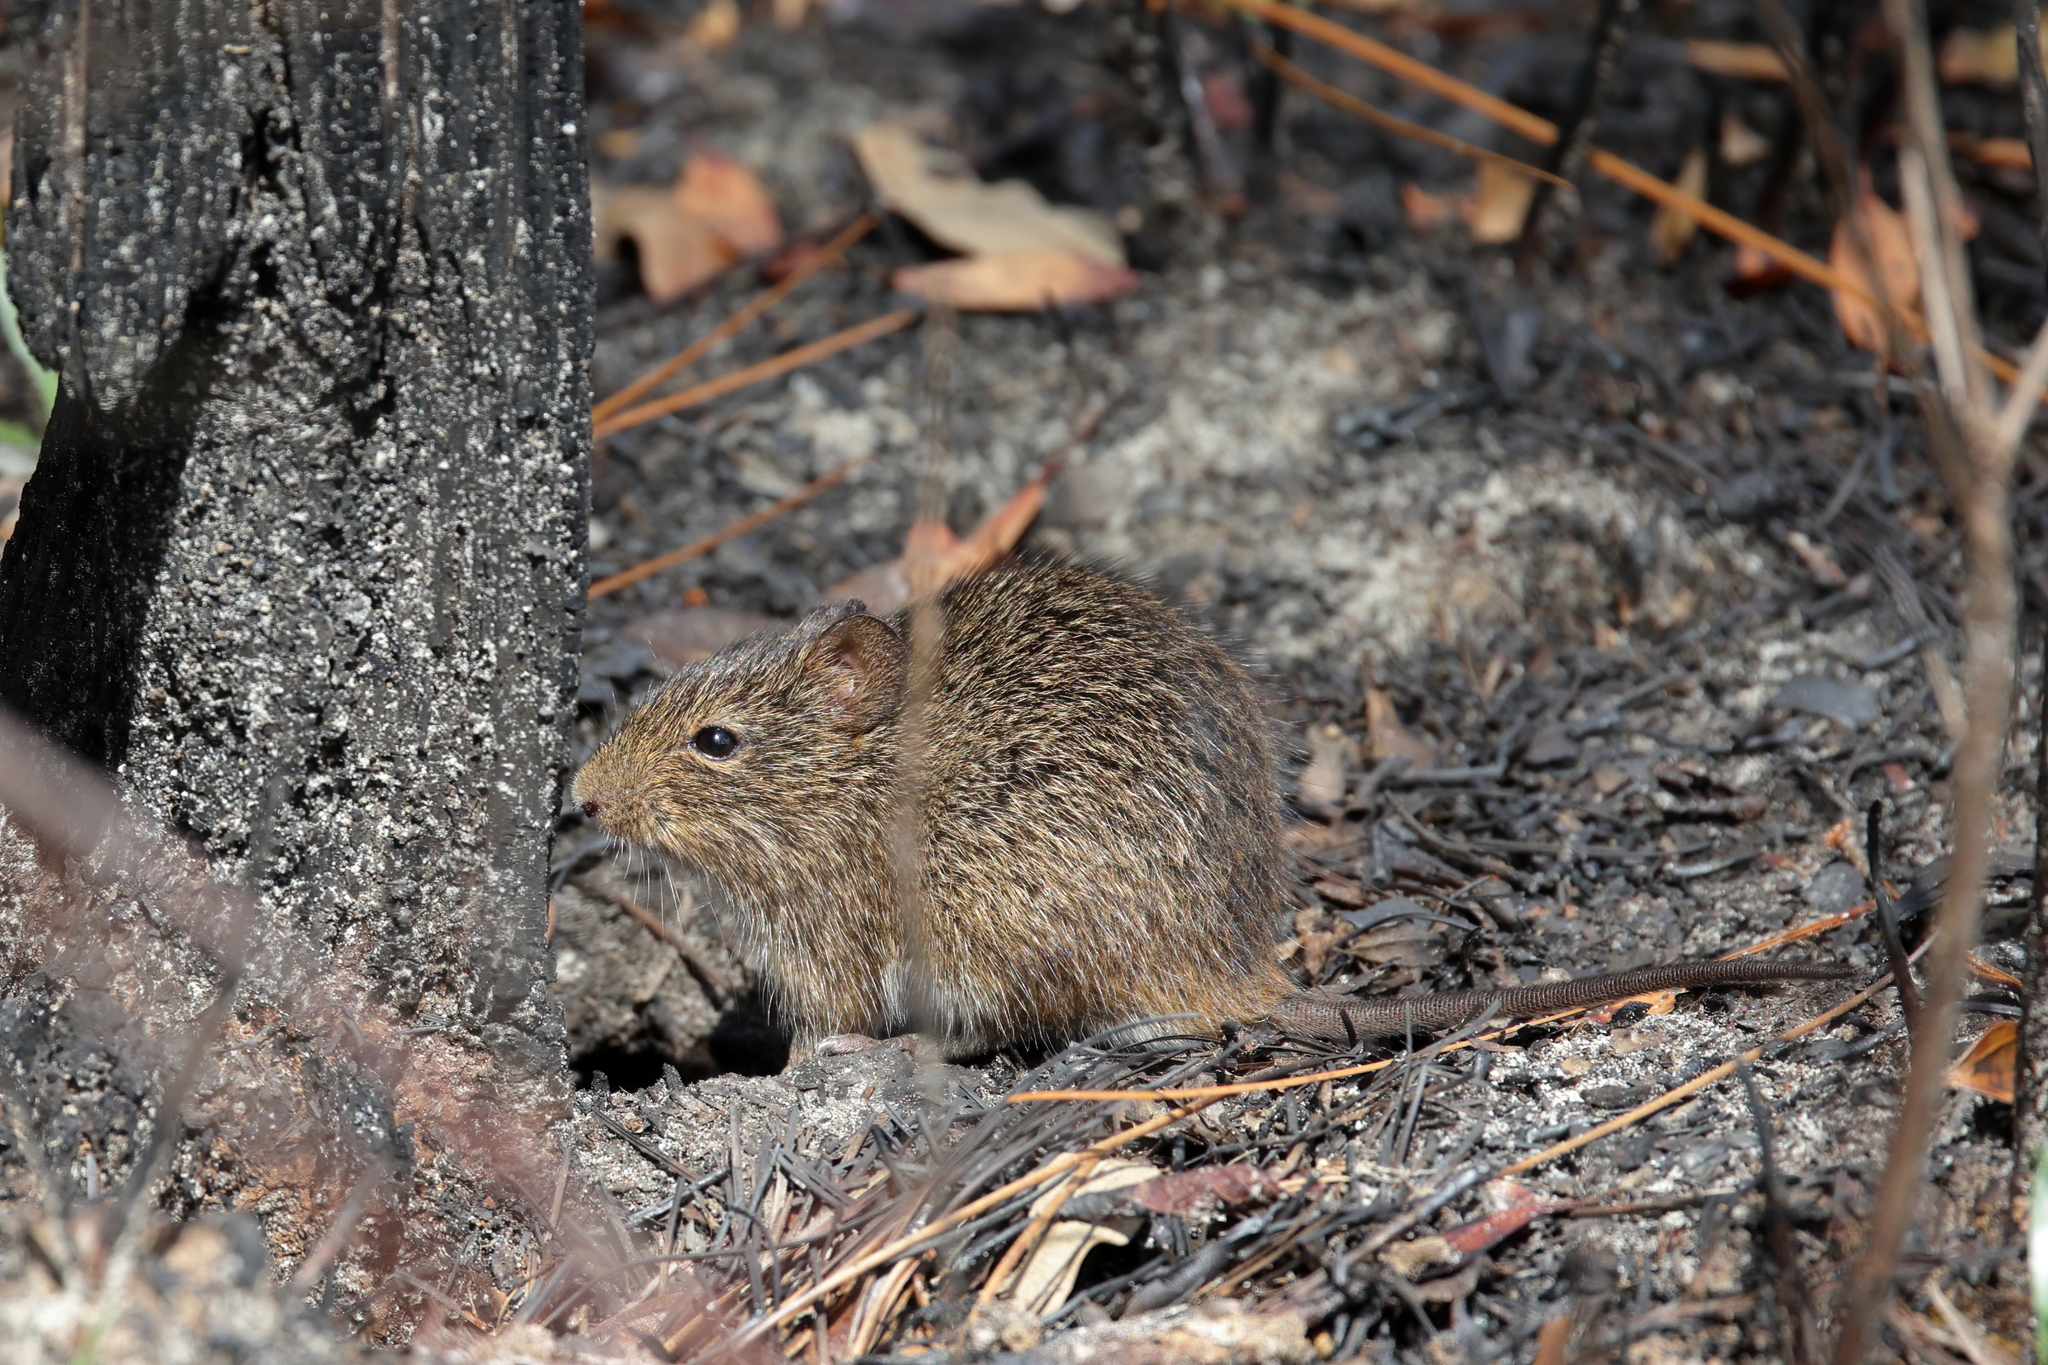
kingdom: Animalia
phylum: Chordata
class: Mammalia
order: Rodentia
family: Cricetidae
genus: Sigmodon
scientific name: Sigmodon hispidus
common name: Hispid cotton rat
